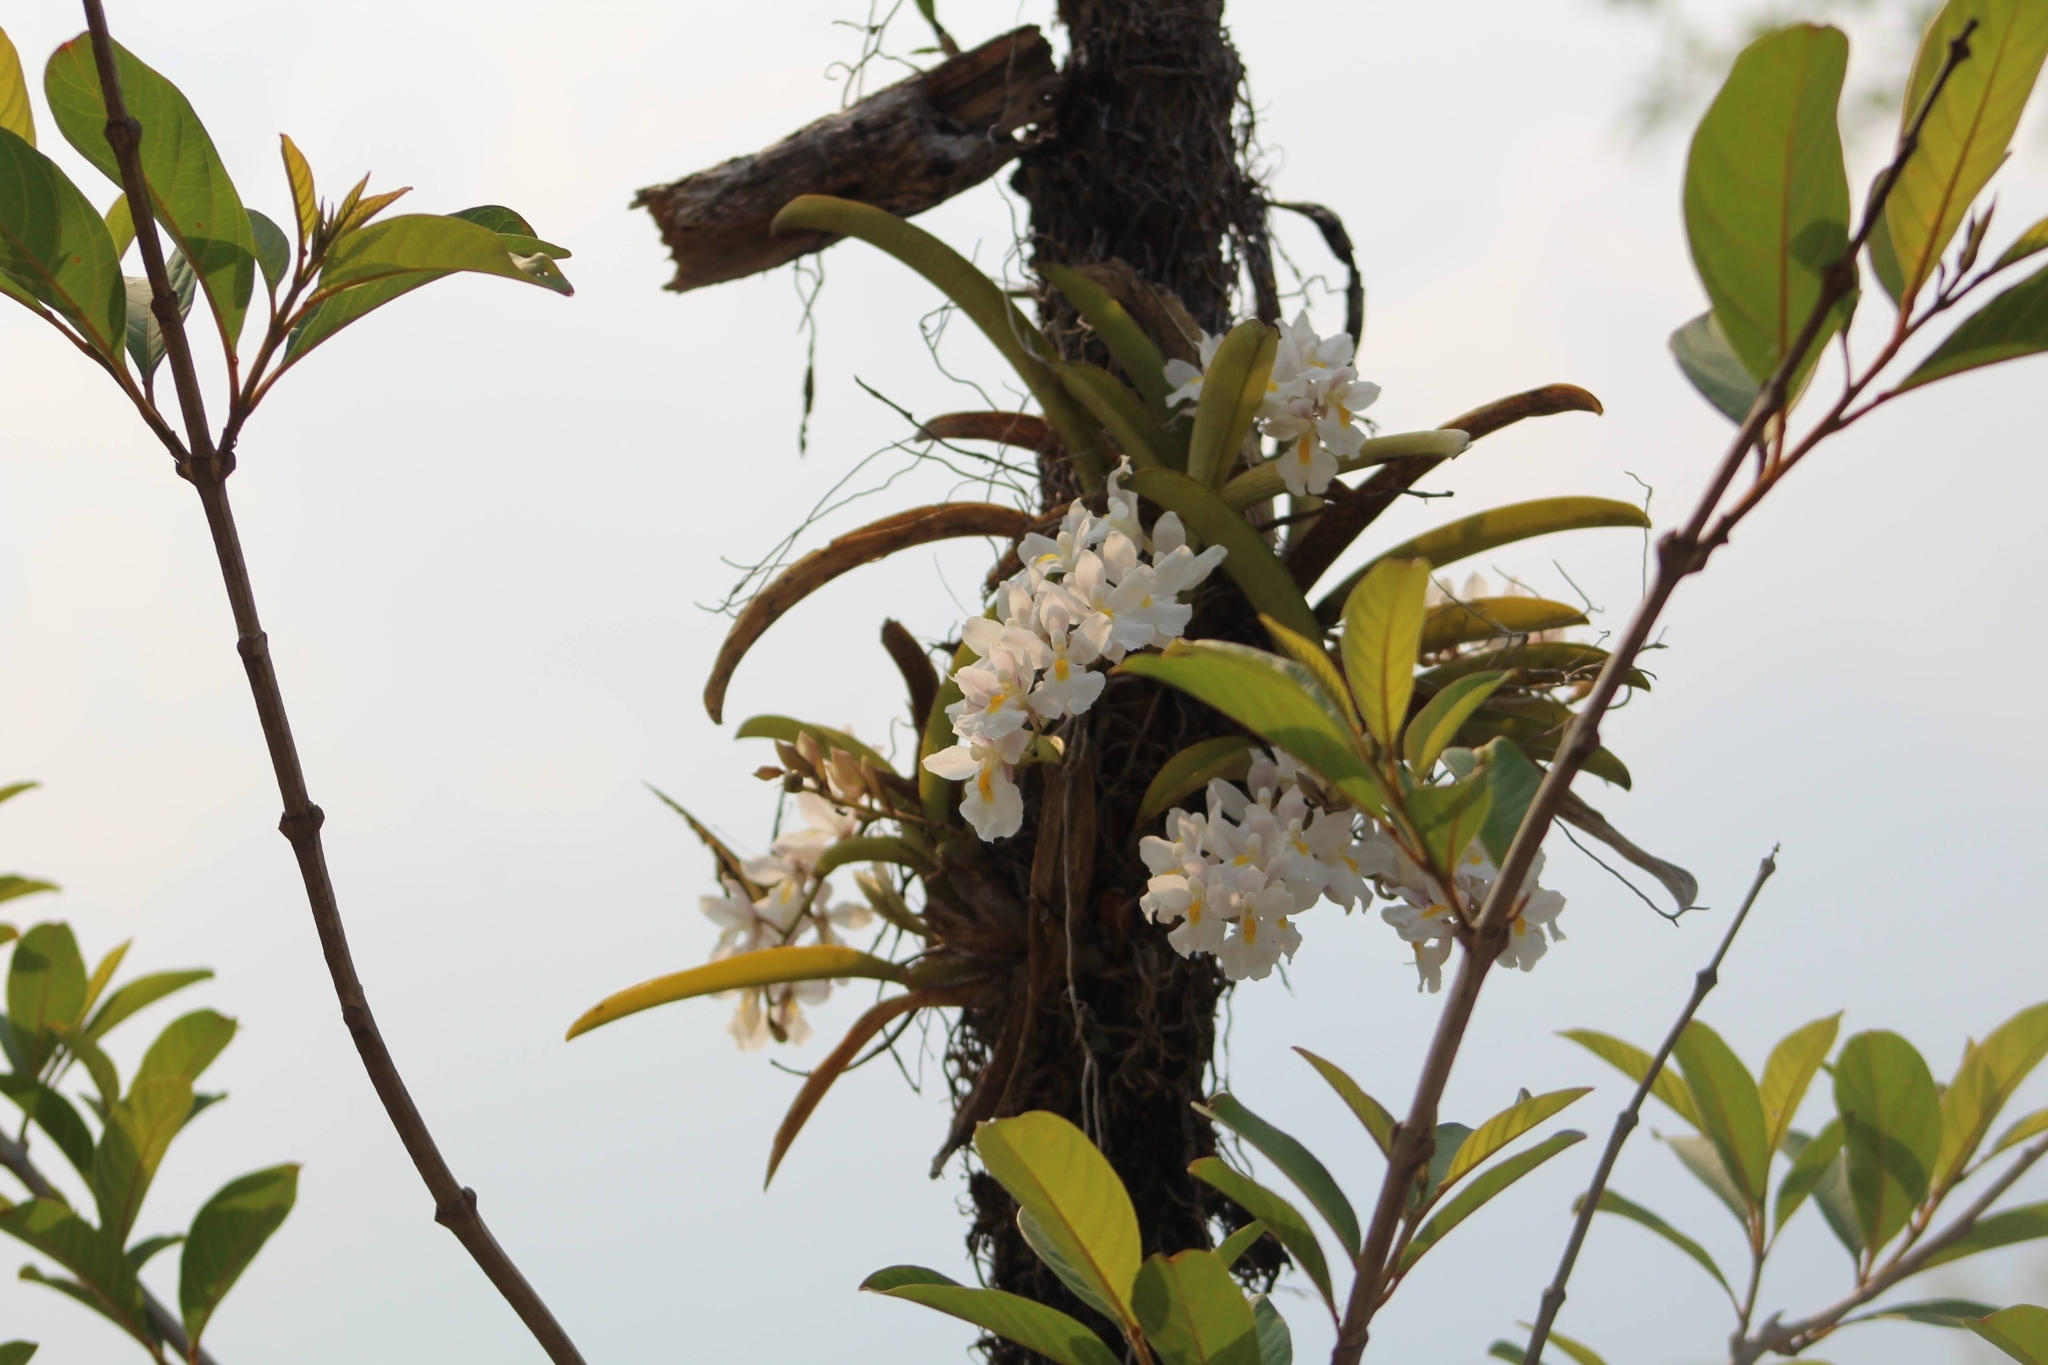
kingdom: Plantae
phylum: Tracheophyta
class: Liliopsida
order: Asparagales
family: Orchidaceae
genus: Rodriguezia
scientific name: Rodriguezia bracteata
